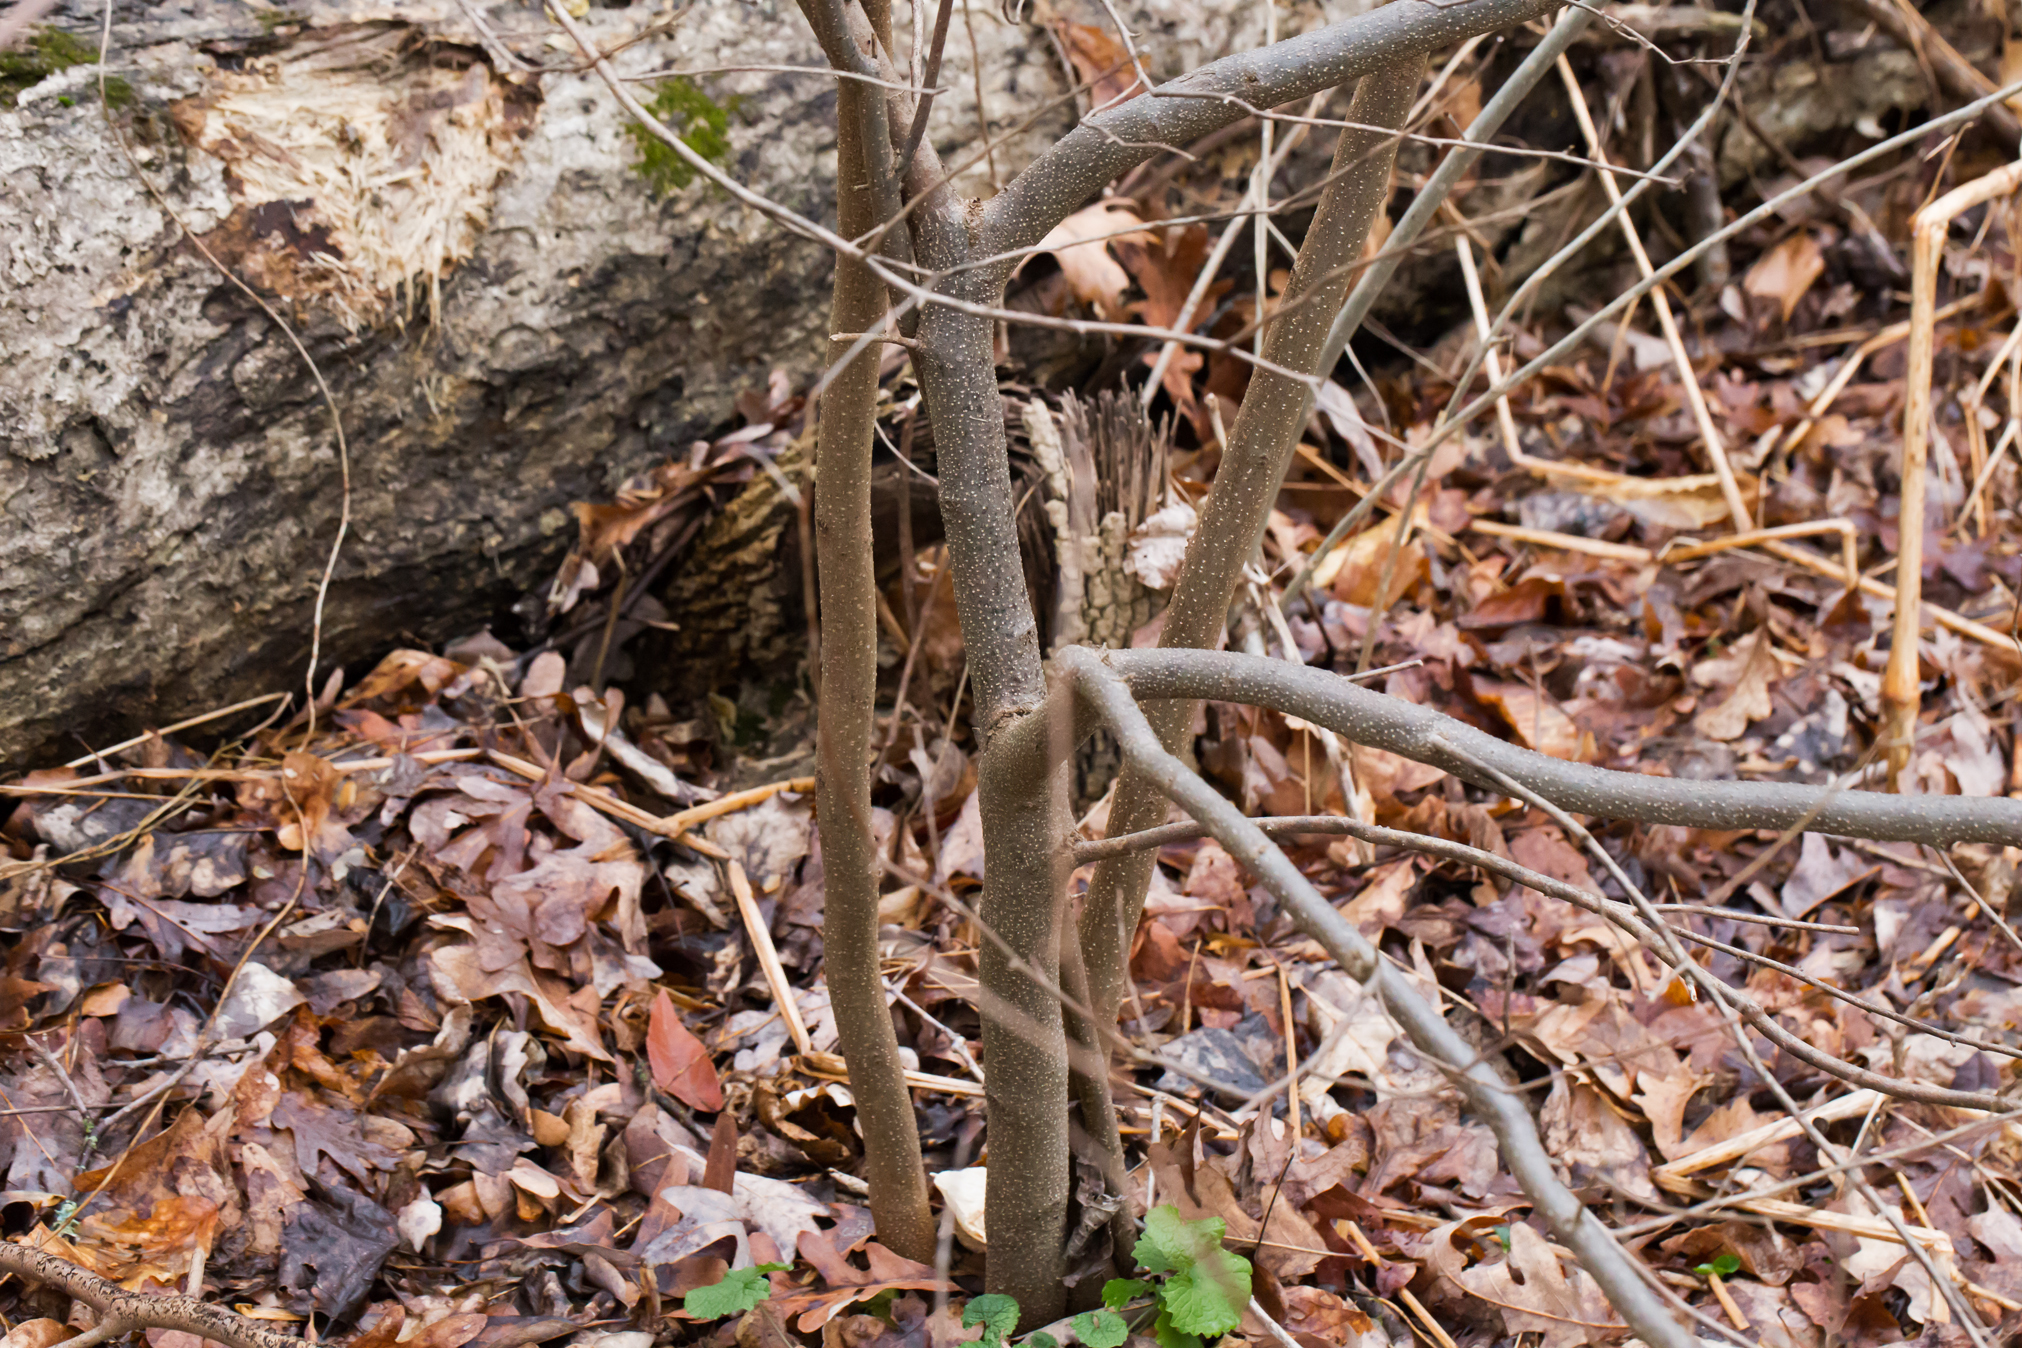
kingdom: Plantae
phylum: Tracheophyta
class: Magnoliopsida
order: Laurales
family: Lauraceae
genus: Lindera
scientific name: Lindera benzoin
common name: Spicebush
